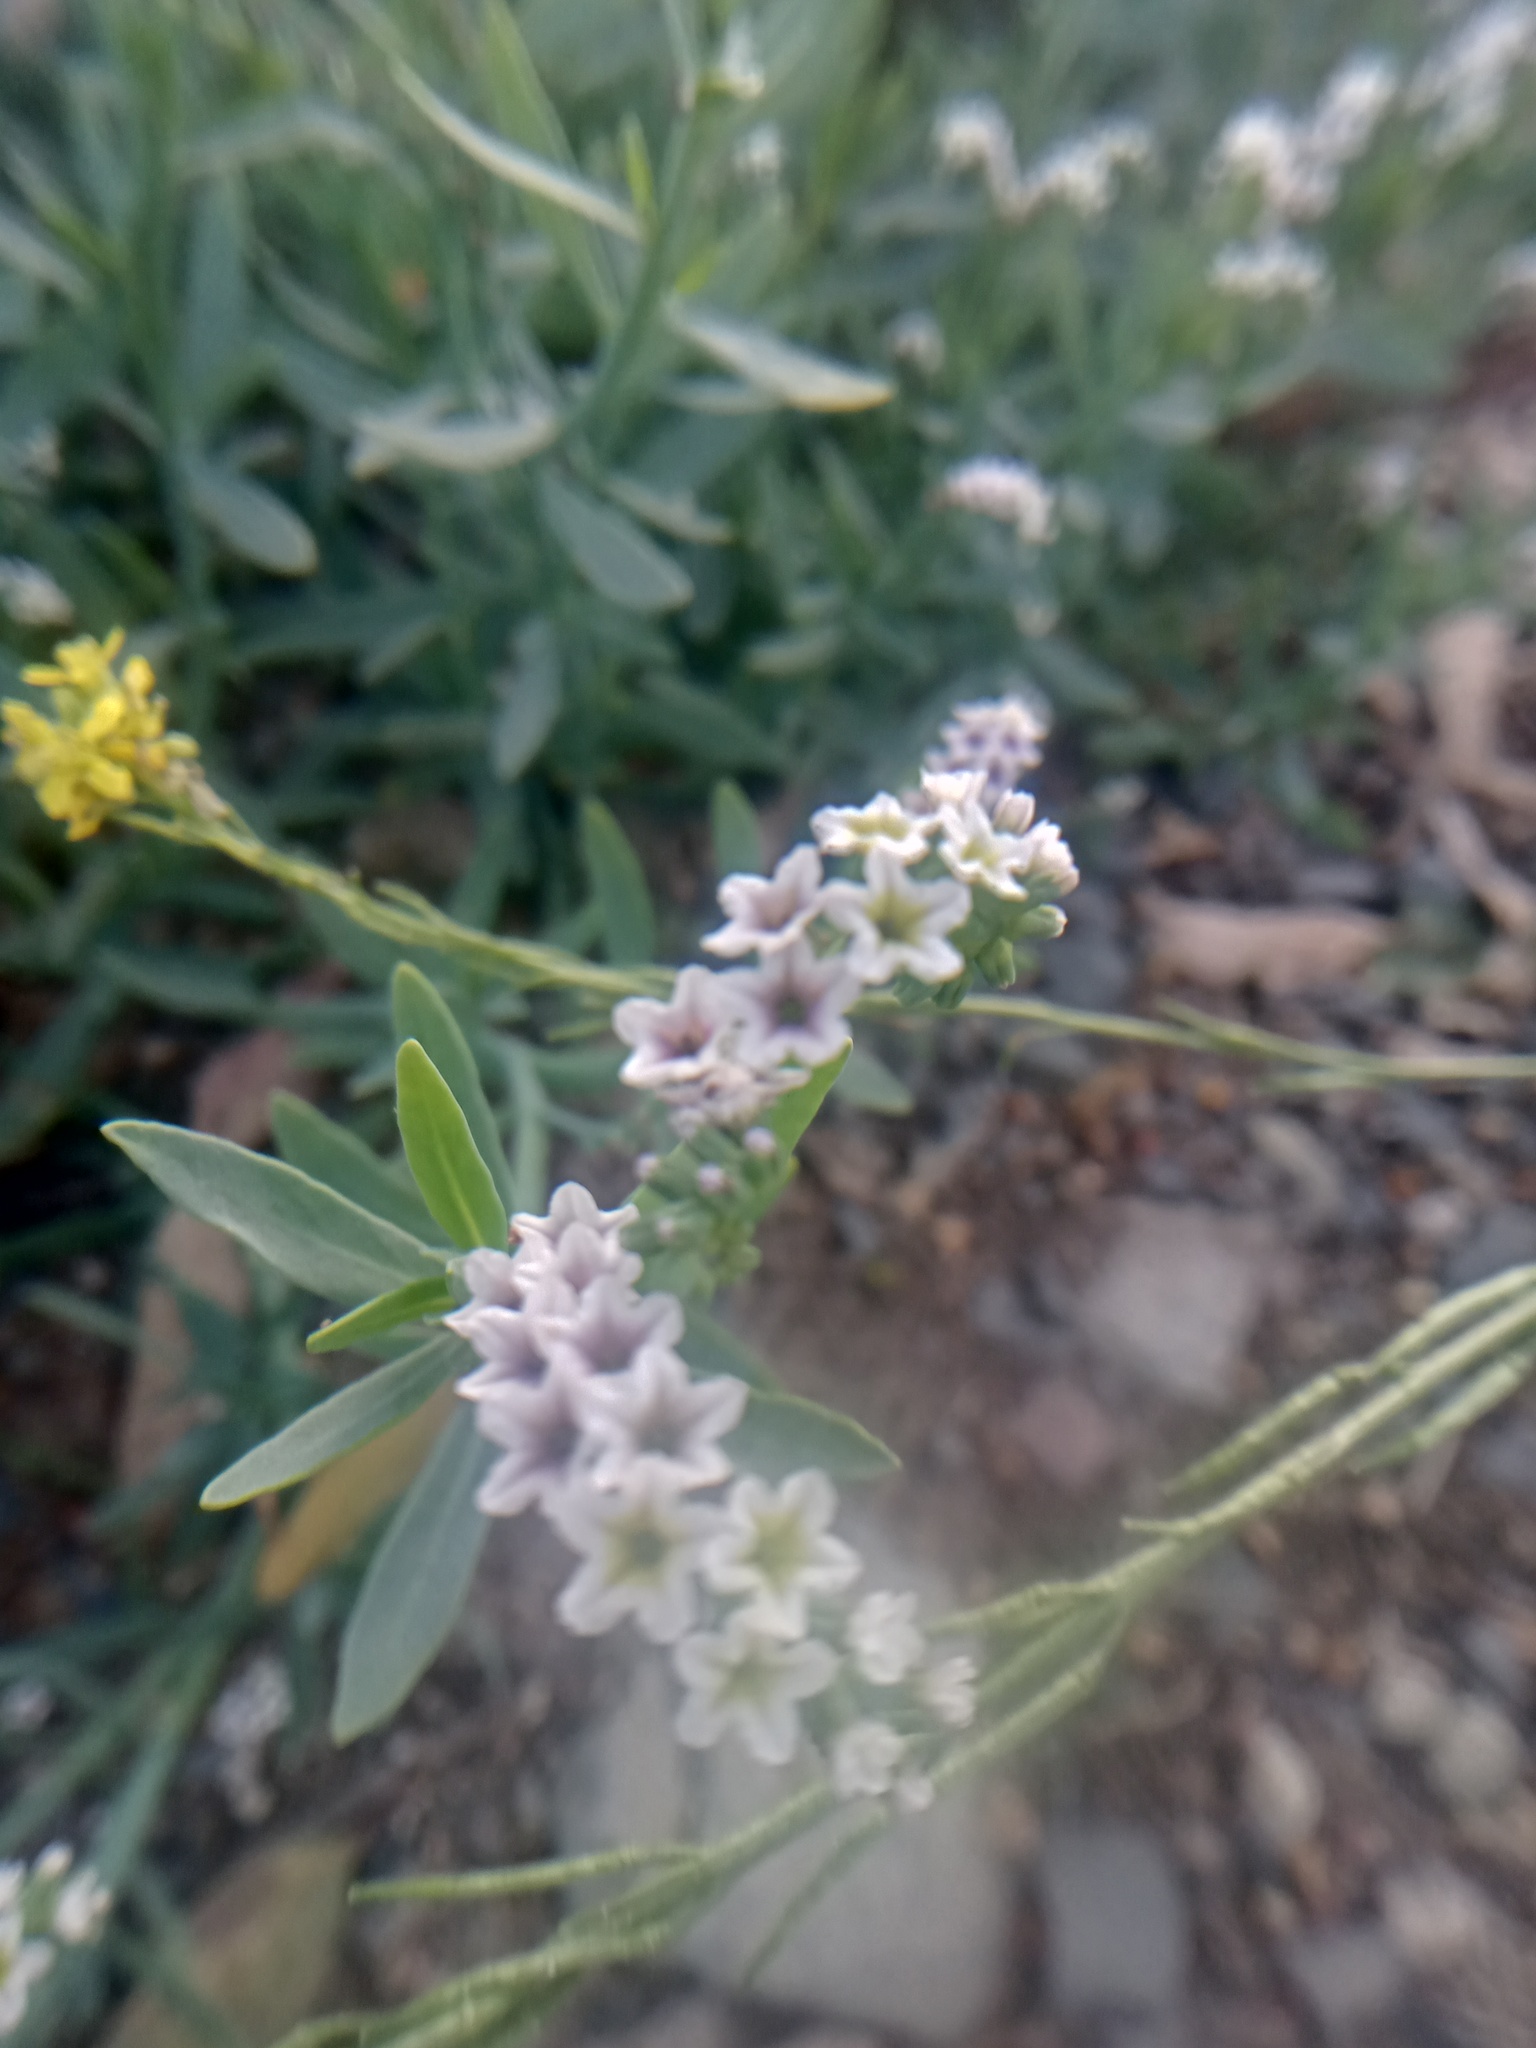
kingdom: Plantae
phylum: Tracheophyta
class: Magnoliopsida
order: Boraginales
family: Heliotropiaceae
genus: Heliotropium
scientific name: Heliotropium curassavicum
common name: Seaside heliotrope
